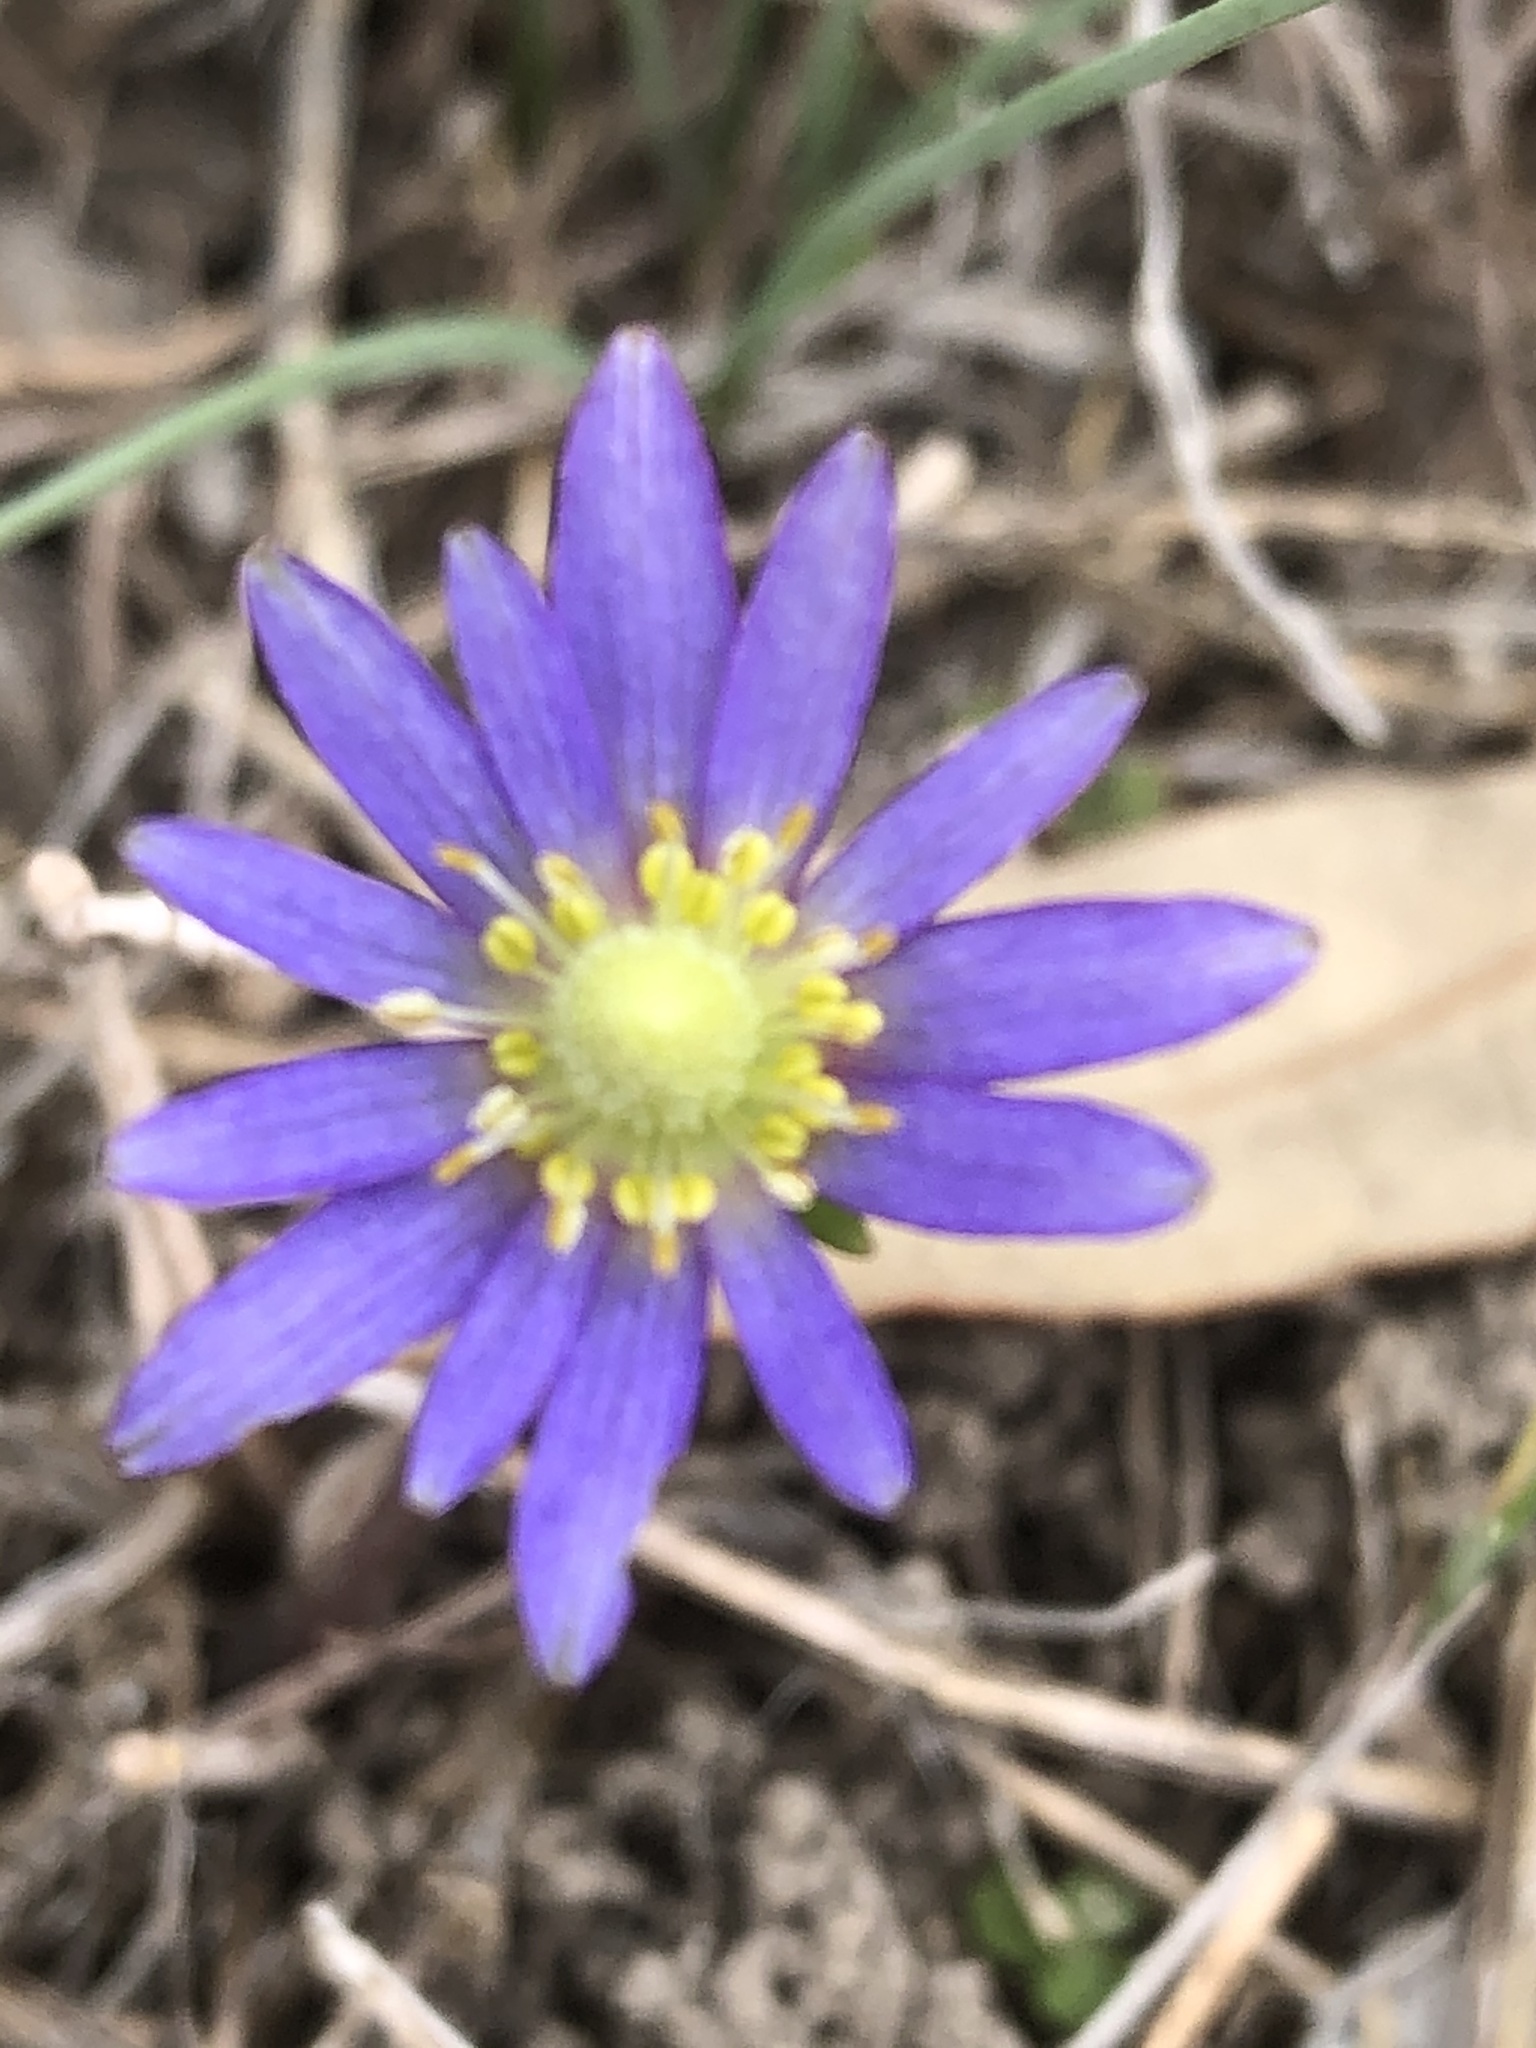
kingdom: Plantae
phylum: Tracheophyta
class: Magnoliopsida
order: Ranunculales
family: Ranunculaceae
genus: Anemone
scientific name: Anemone berlandieri
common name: Ten-petal anemone
